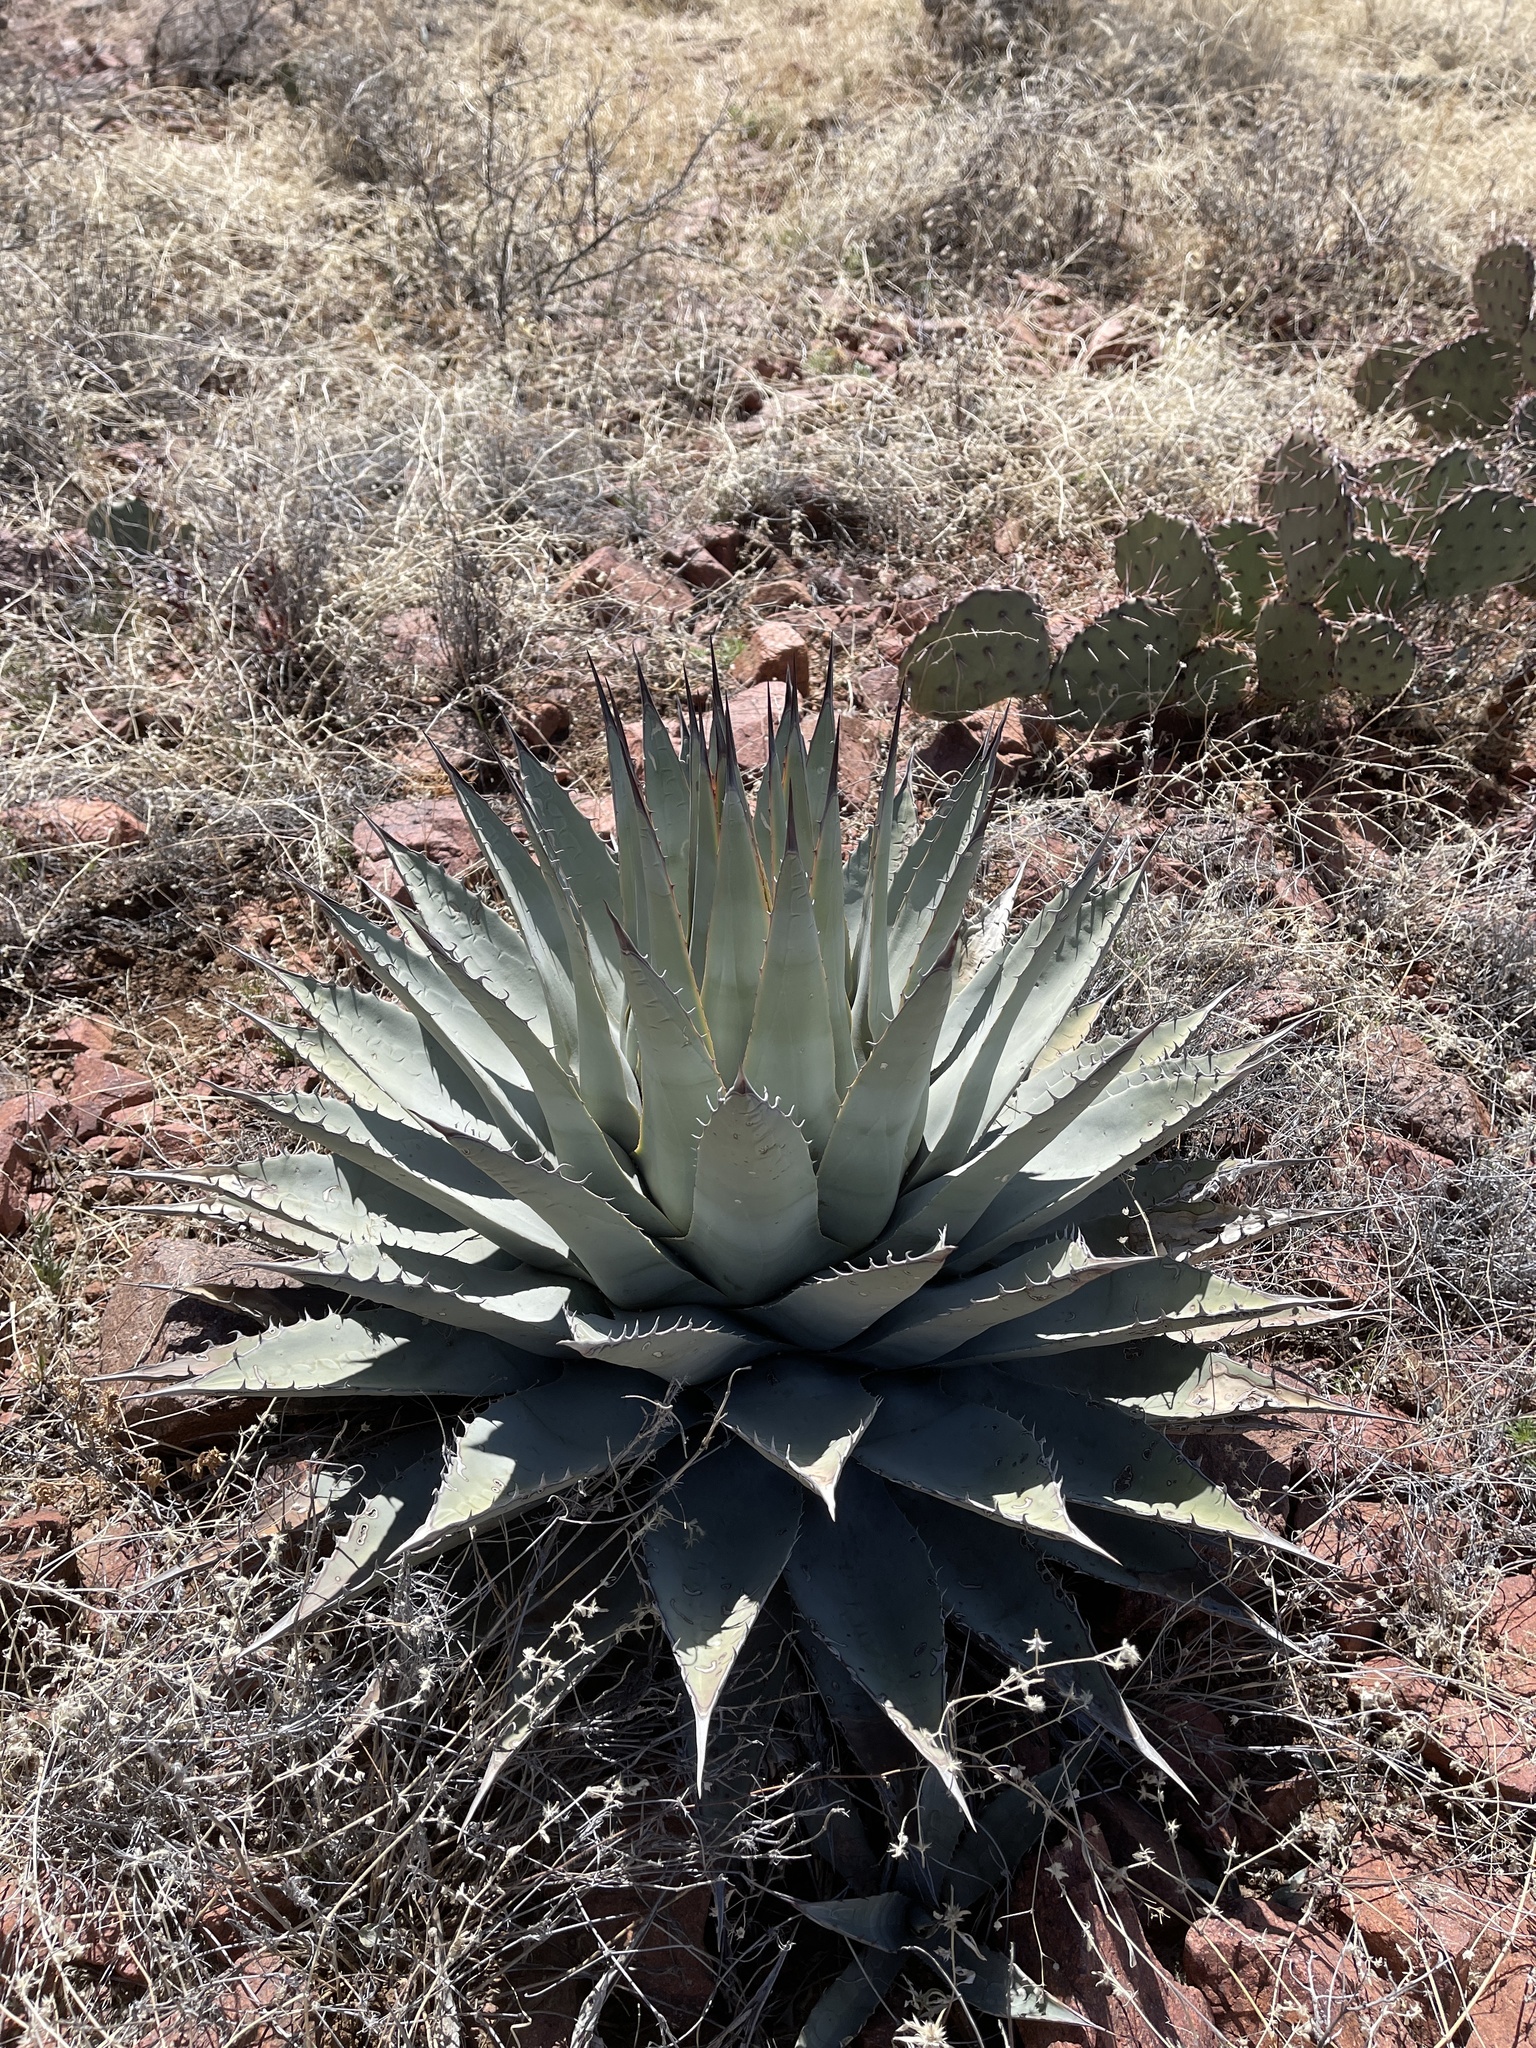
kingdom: Plantae
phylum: Tracheophyta
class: Liliopsida
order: Asparagales
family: Asparagaceae
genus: Agave
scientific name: Agave parryi
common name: Parry's agave
